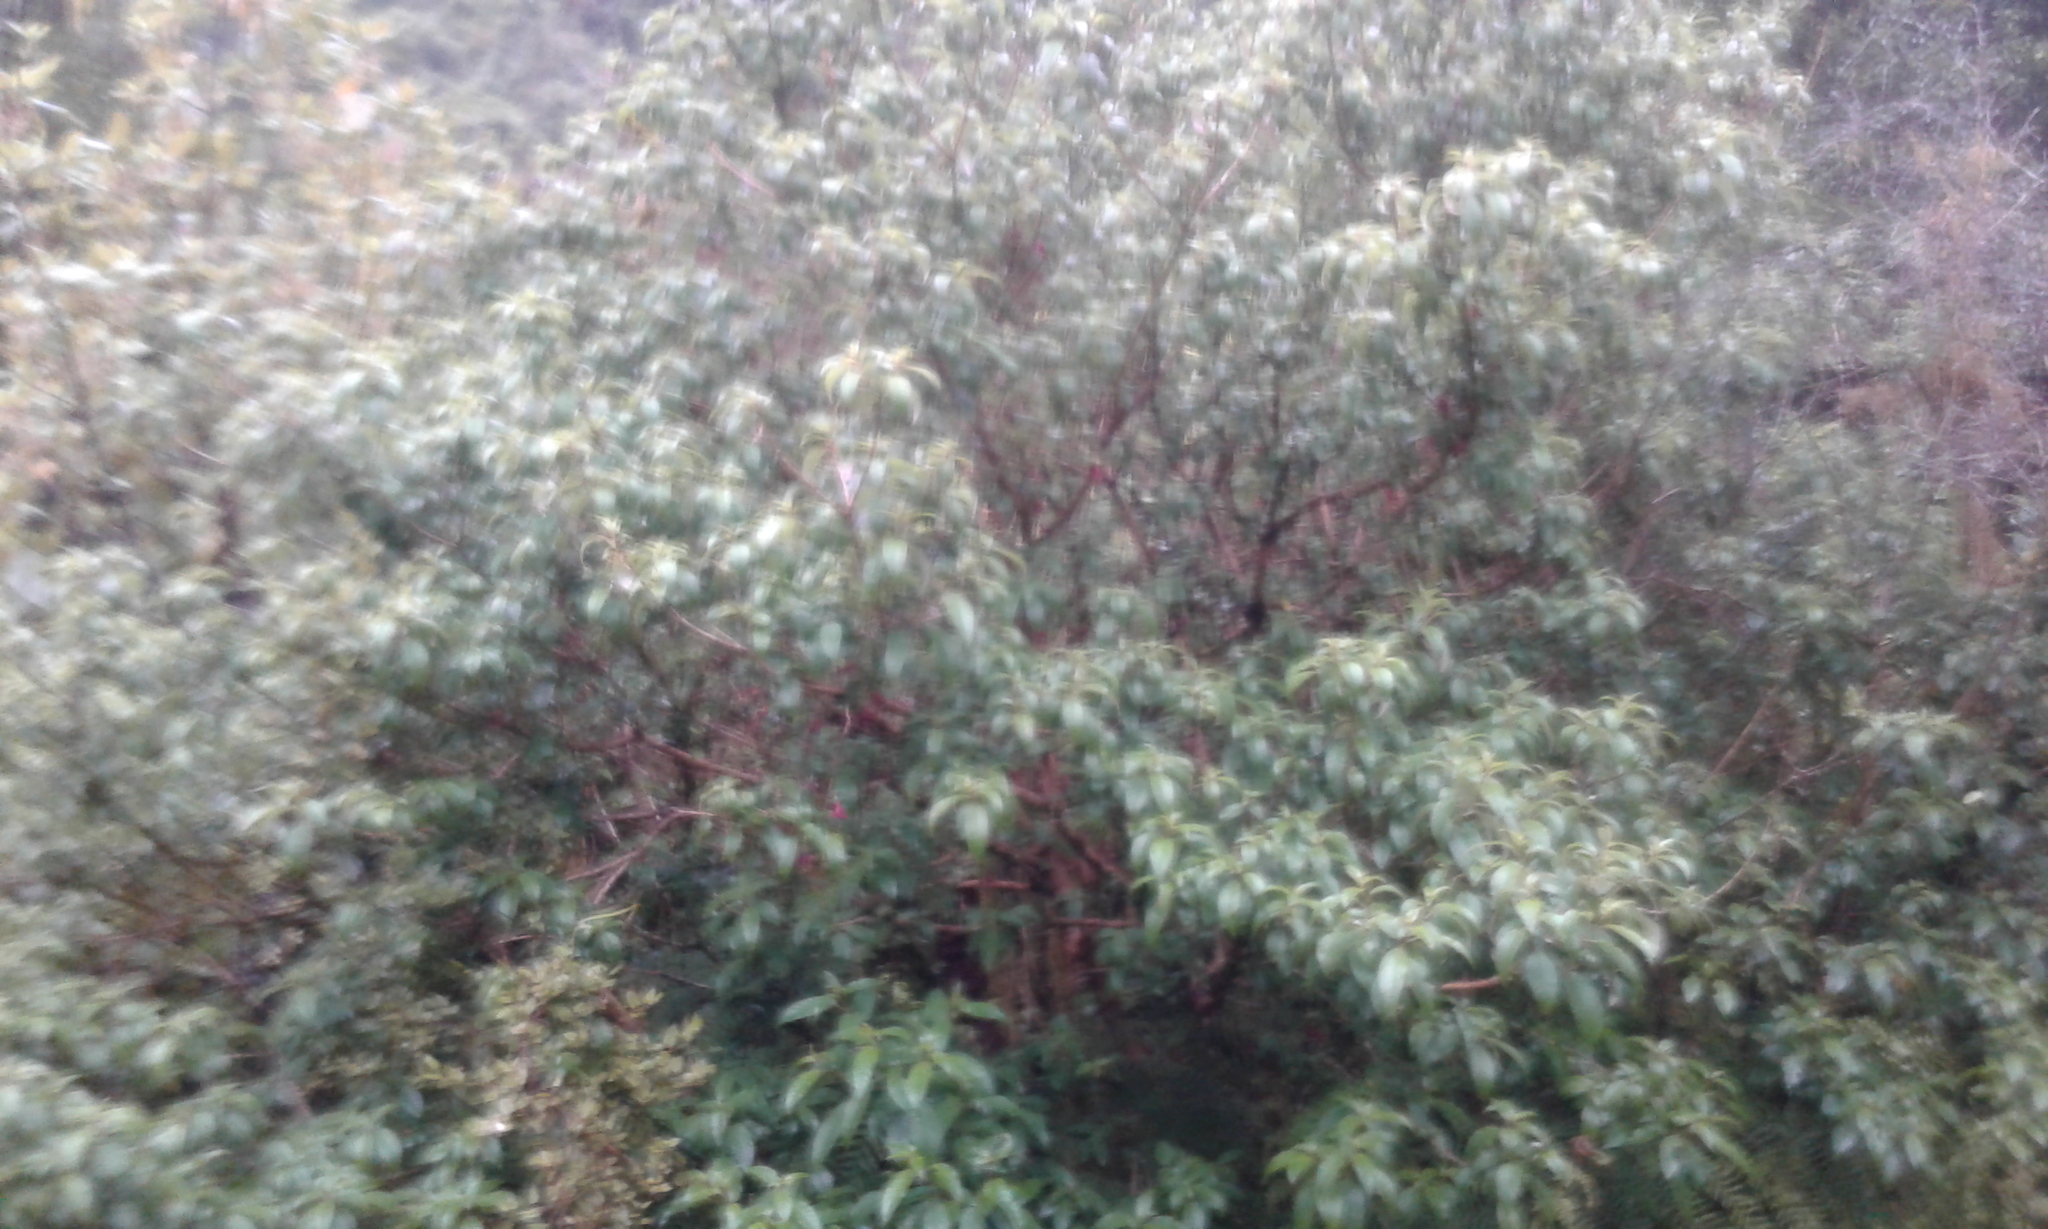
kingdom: Plantae
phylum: Tracheophyta
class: Magnoliopsida
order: Myrtales
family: Onagraceae
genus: Fuchsia
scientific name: Fuchsia excorticata
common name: Tree fuchsia
